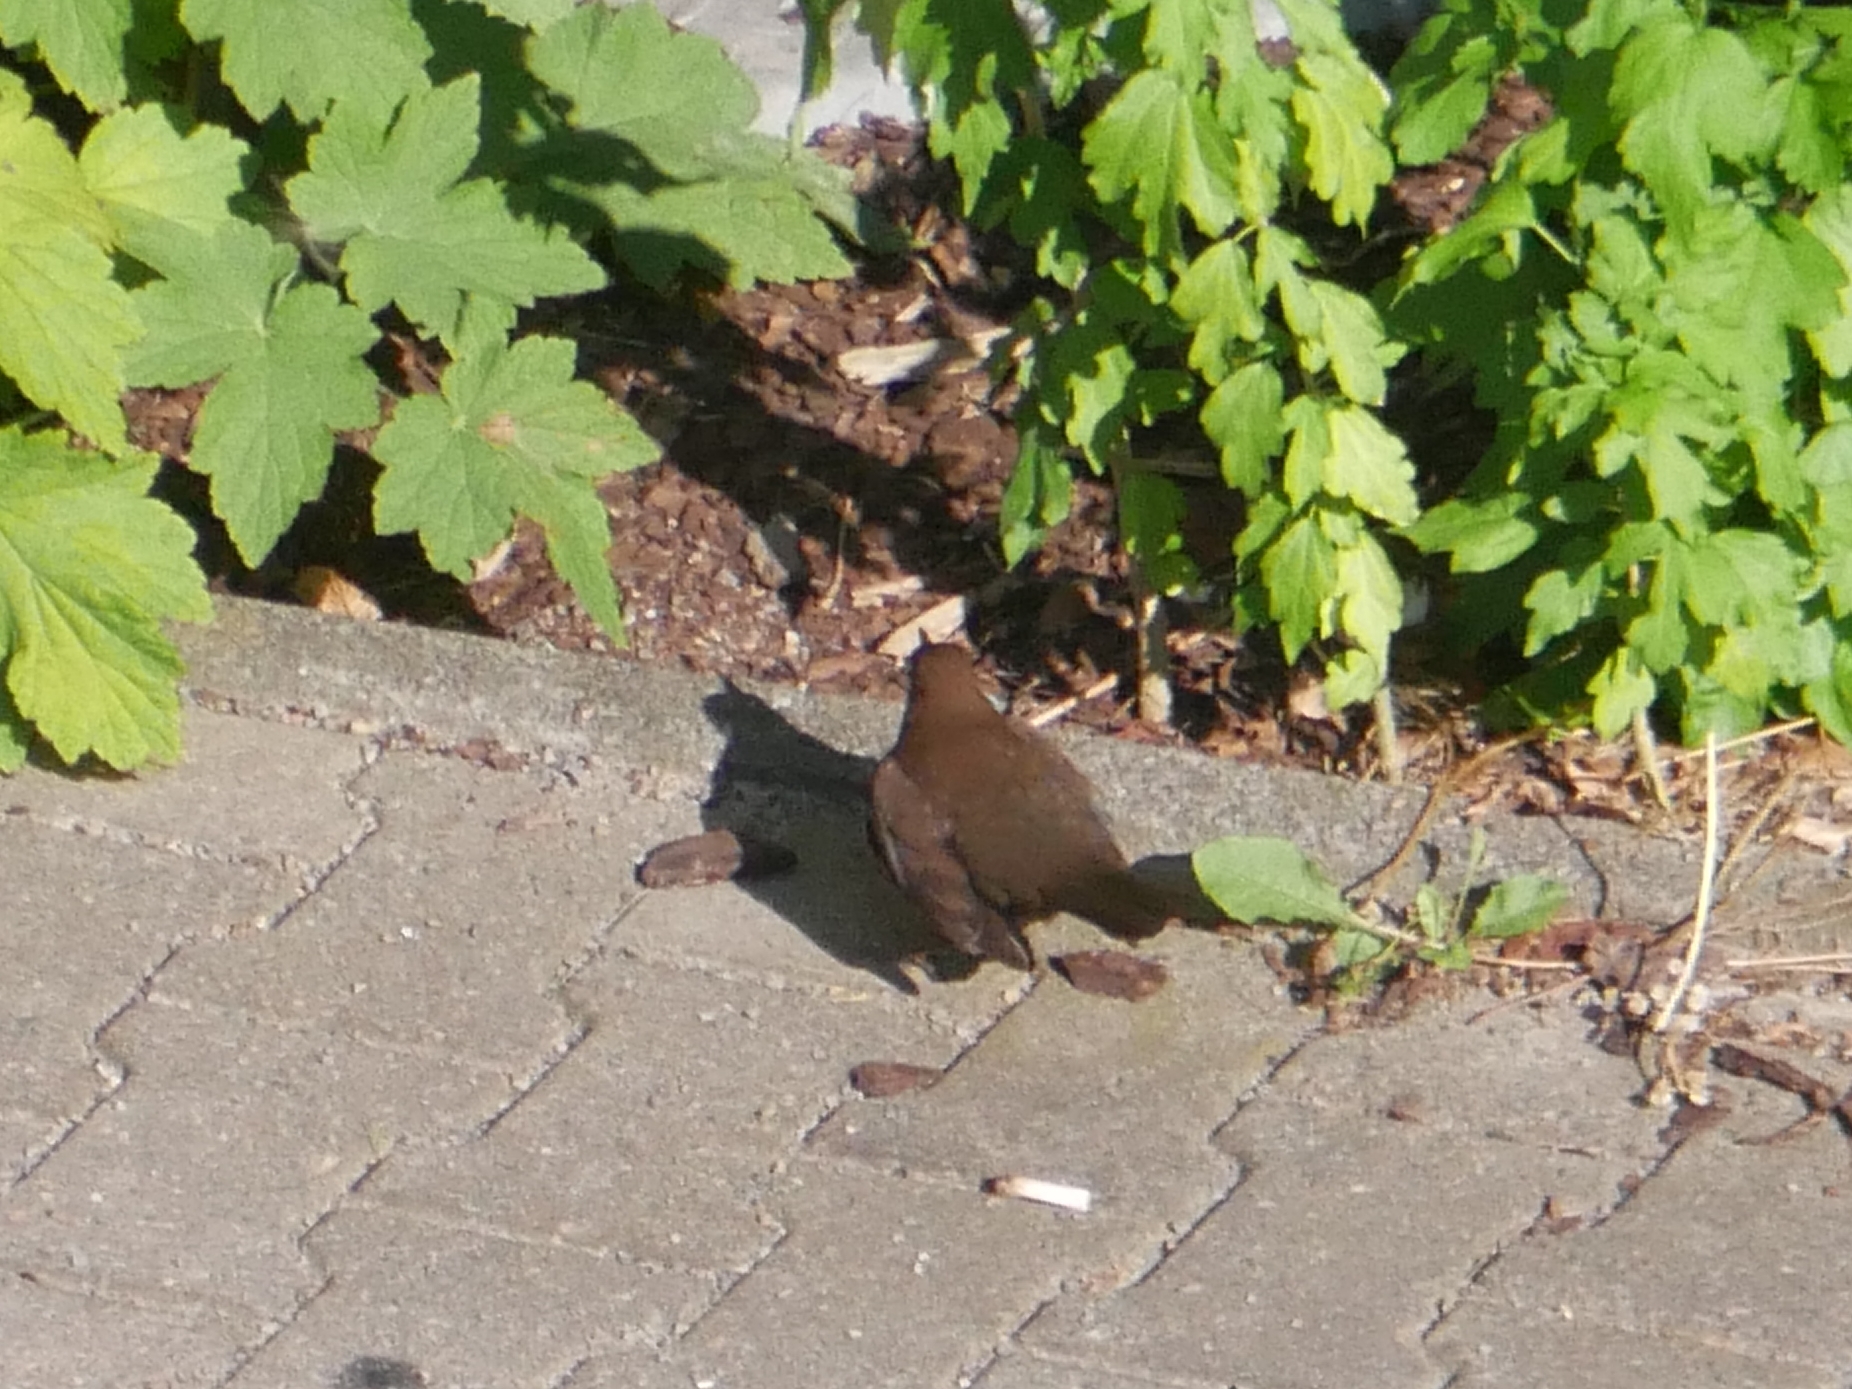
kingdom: Animalia
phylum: Chordata
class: Aves
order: Passeriformes
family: Turdidae
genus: Turdus
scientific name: Turdus merula
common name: Common blackbird
